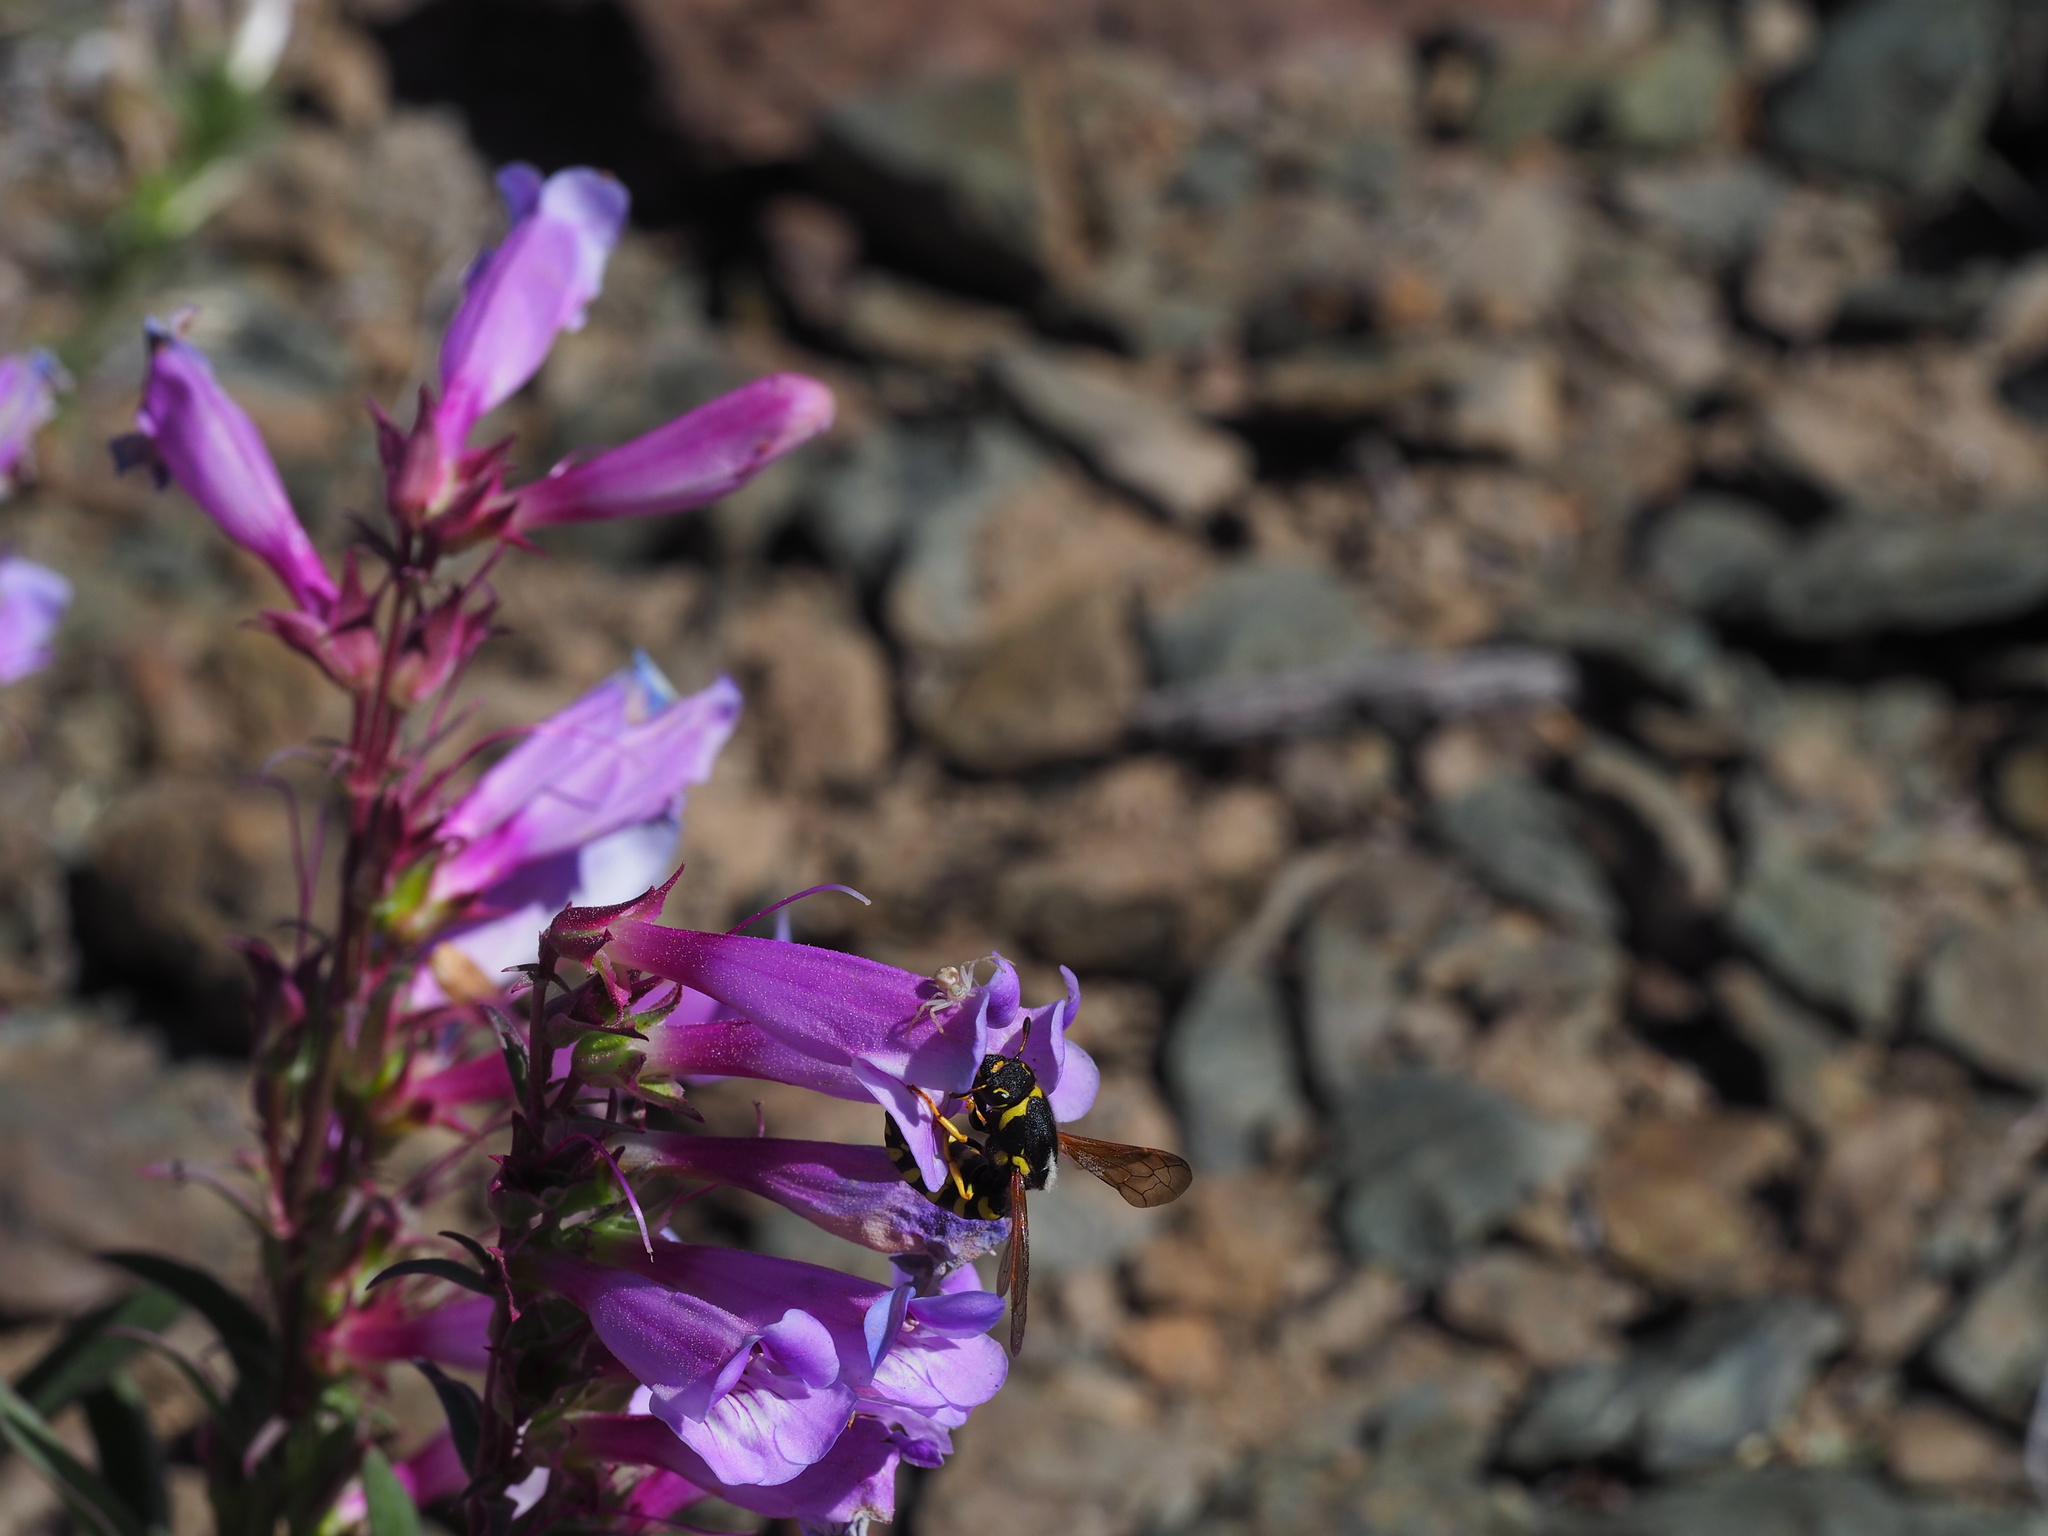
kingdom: Plantae
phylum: Tracheophyta
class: Magnoliopsida
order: Lamiales
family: Plantaginaceae
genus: Penstemon
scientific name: Penstemon speciosus
